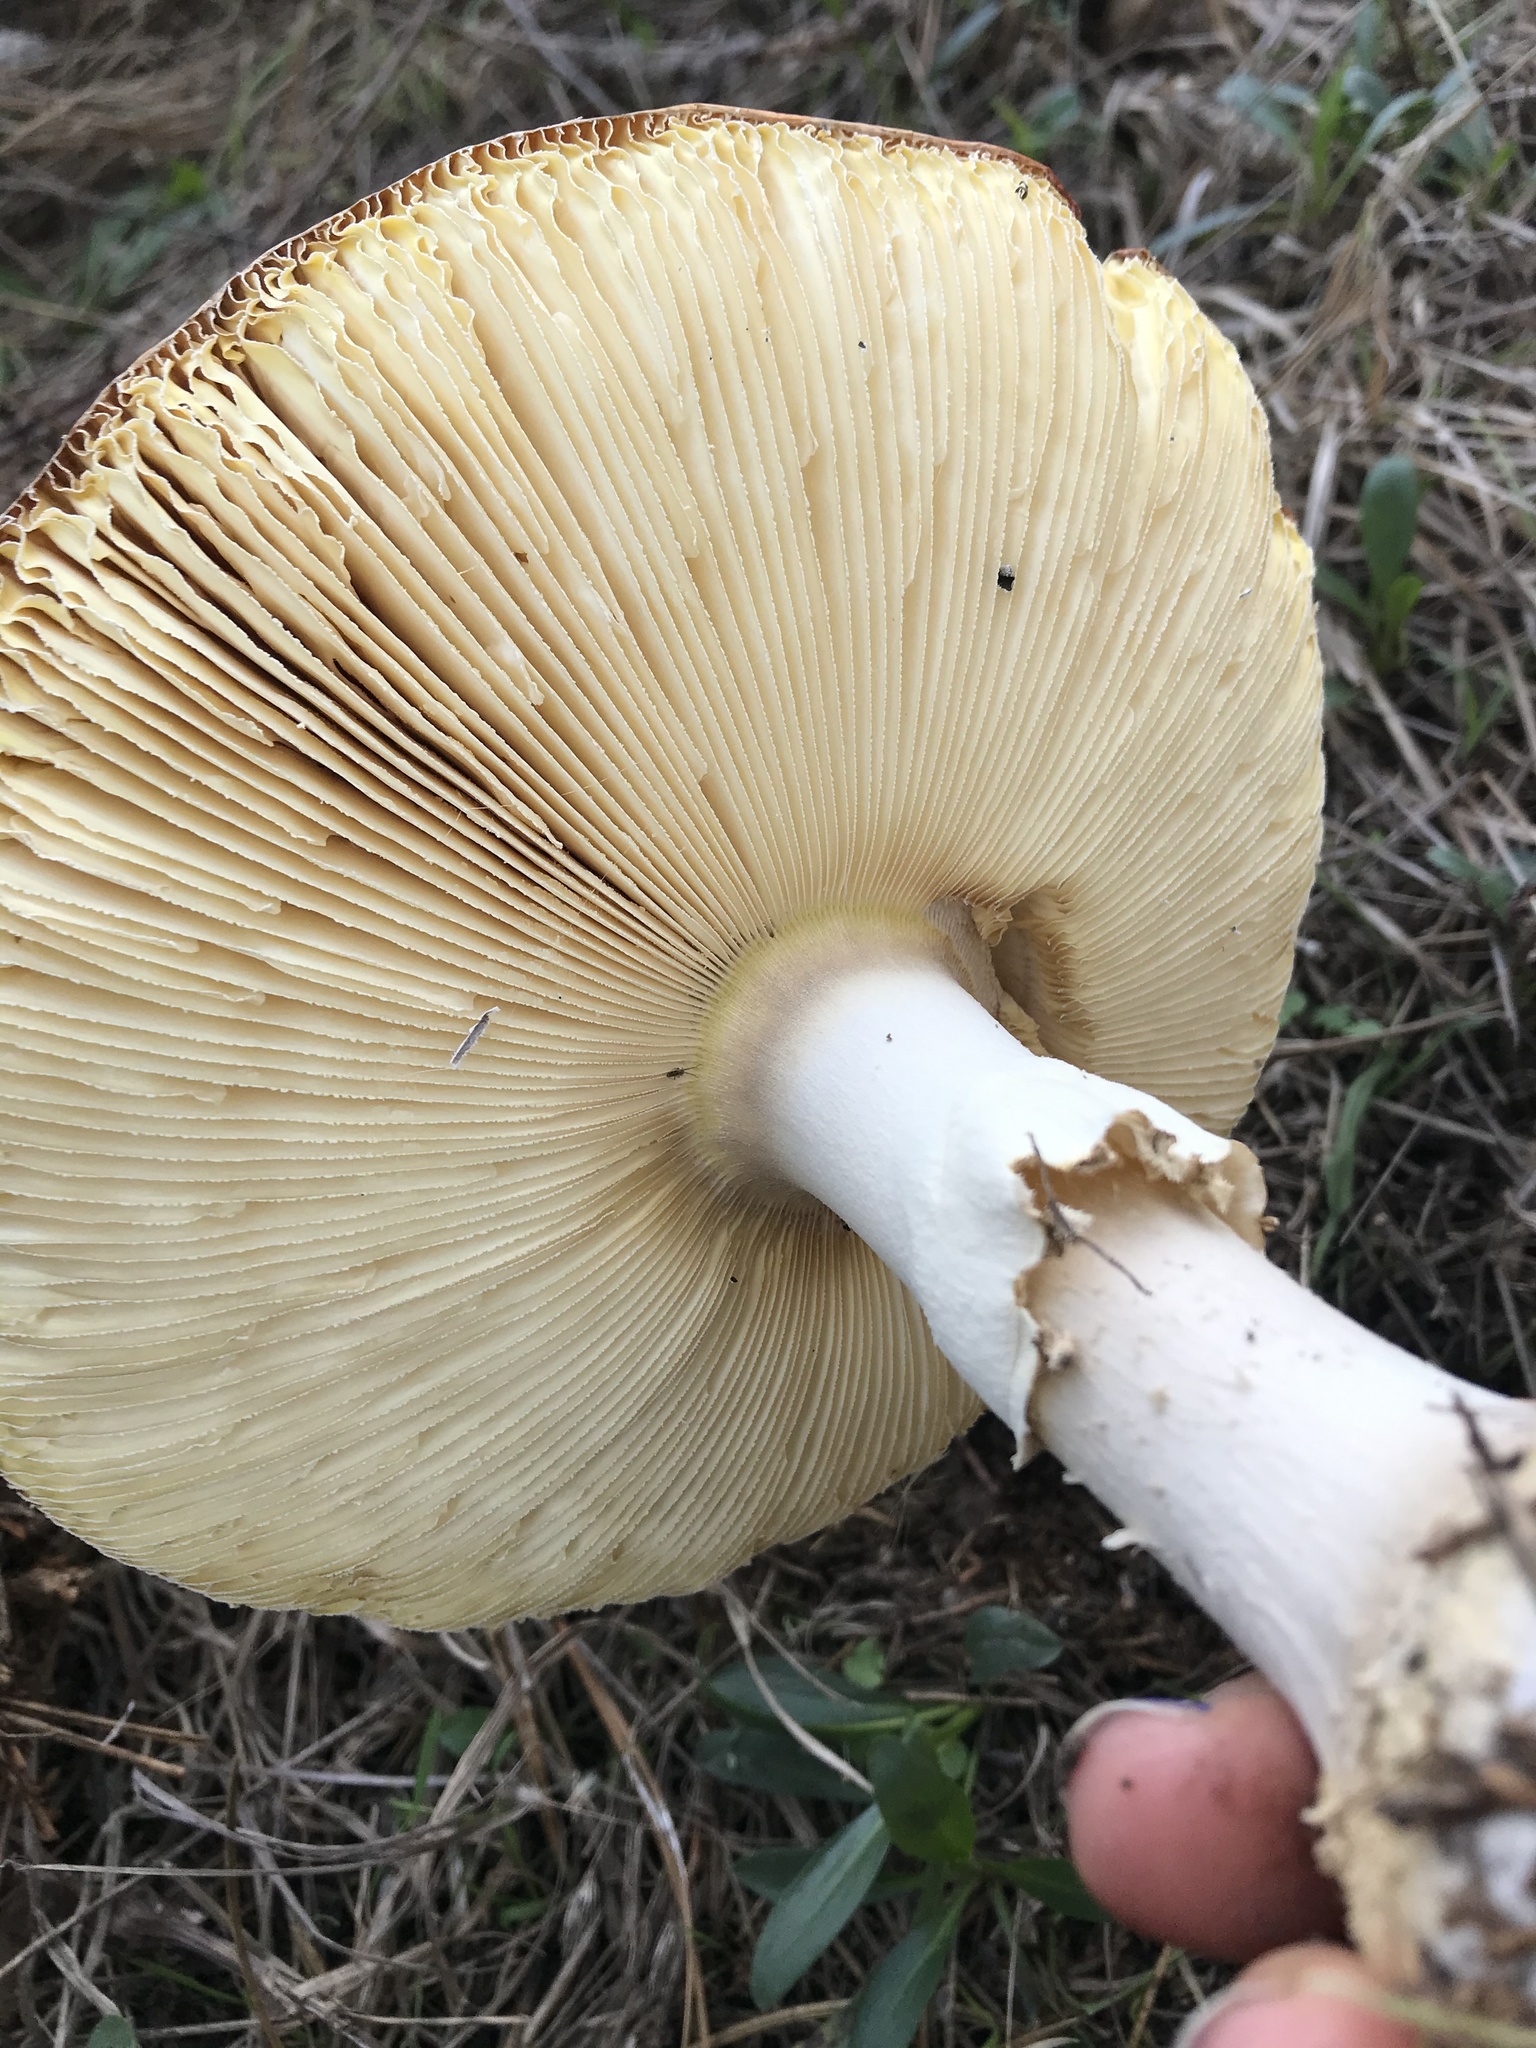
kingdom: Fungi
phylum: Basidiomycota
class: Agaricomycetes
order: Agaricales
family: Amanitaceae
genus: Amanita
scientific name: Amanita muscaria
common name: Fly agaric
